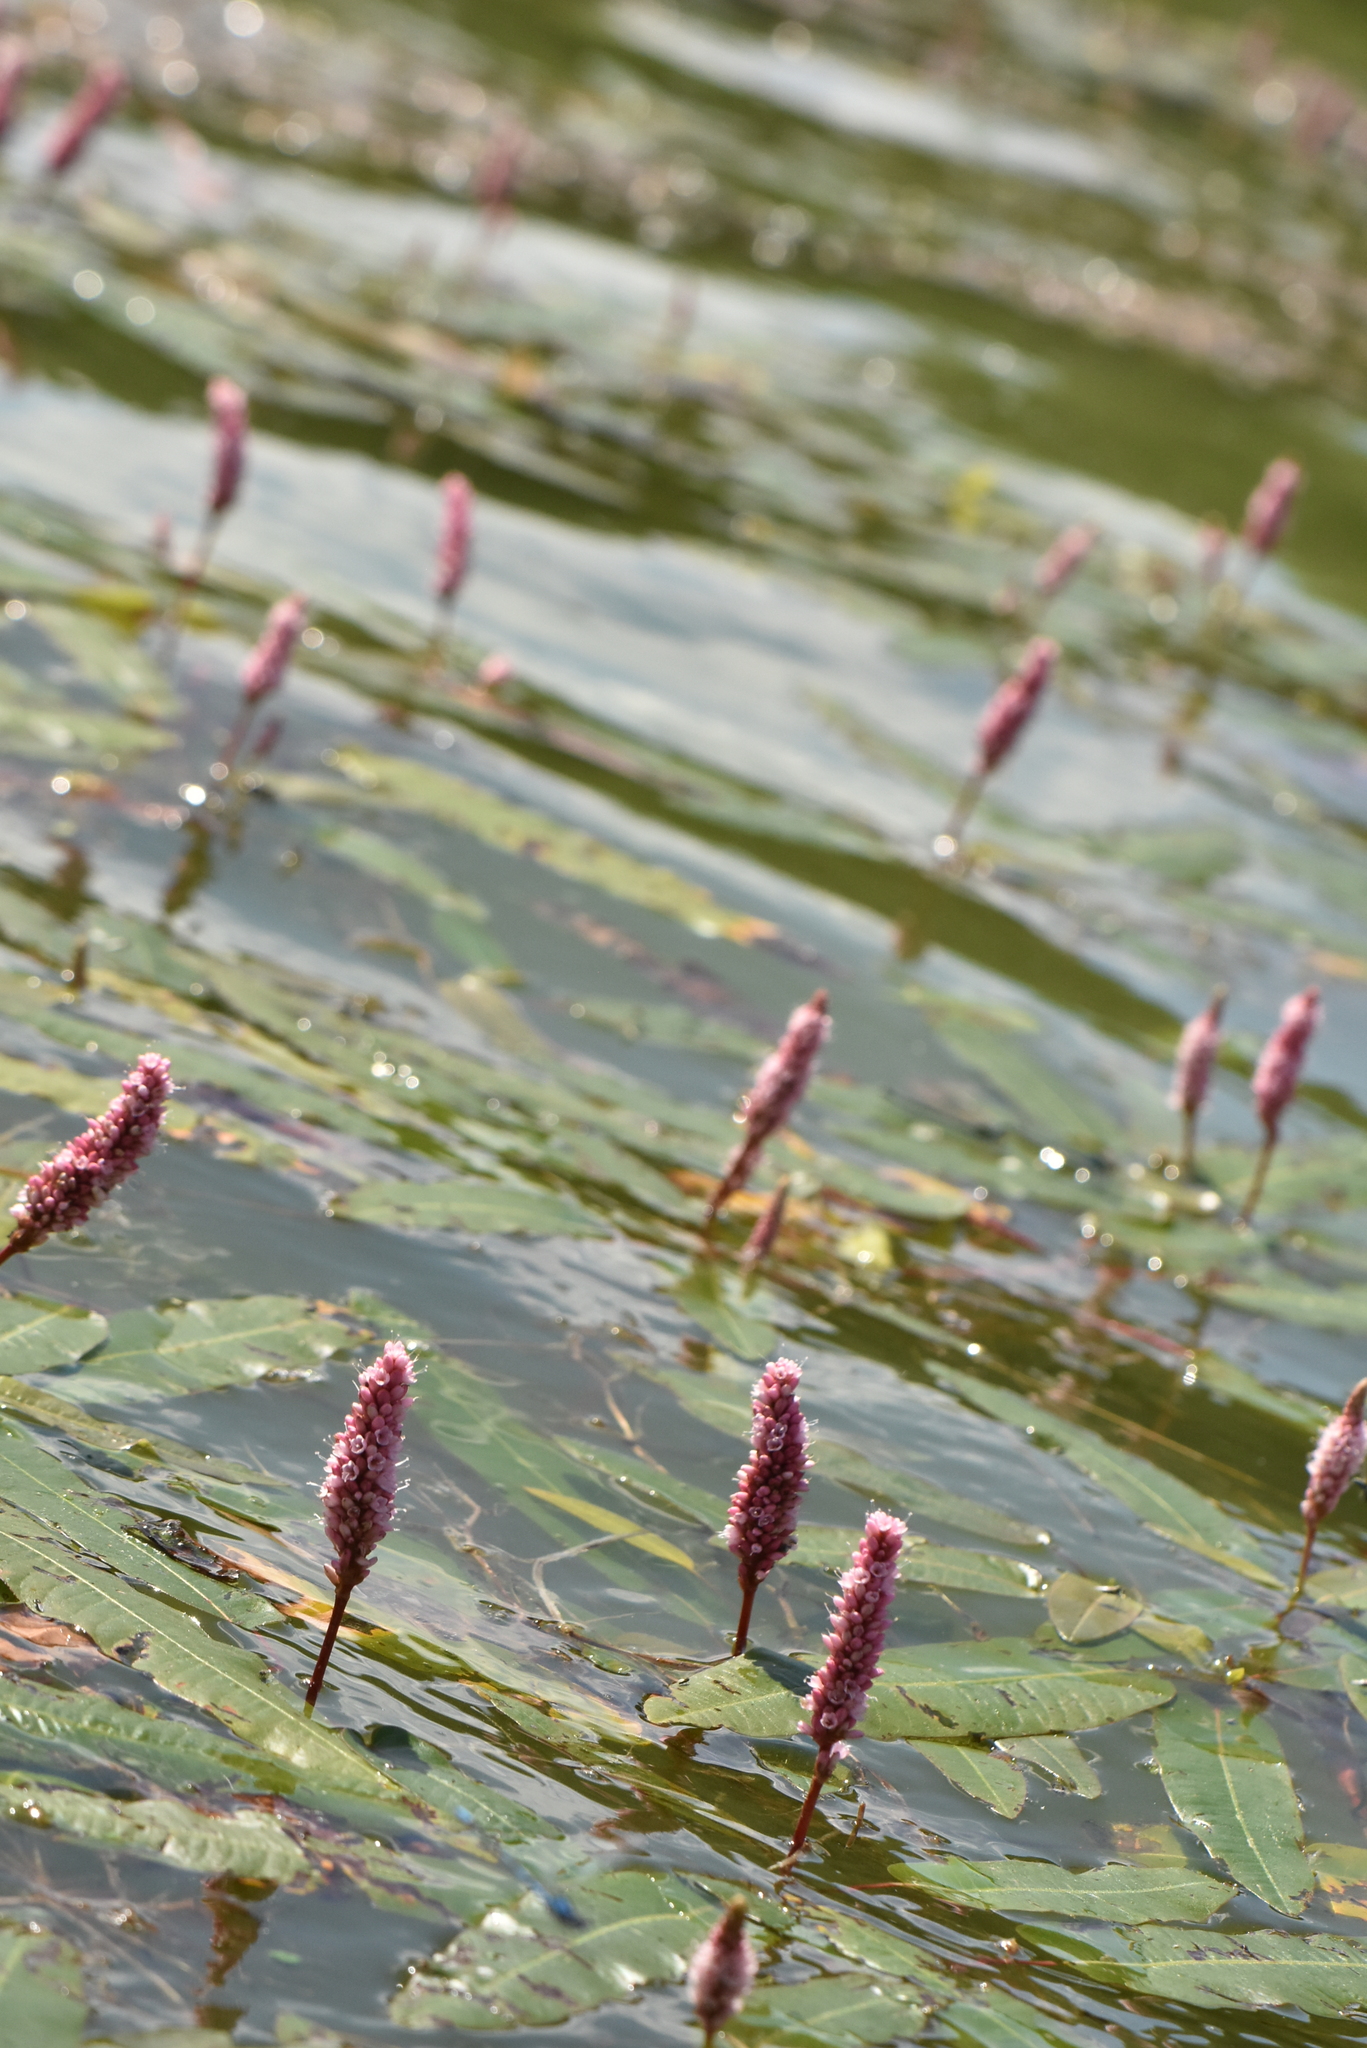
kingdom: Plantae
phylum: Tracheophyta
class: Magnoliopsida
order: Caryophyllales
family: Polygonaceae
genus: Persicaria
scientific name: Persicaria amphibia
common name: Amphibious bistort
